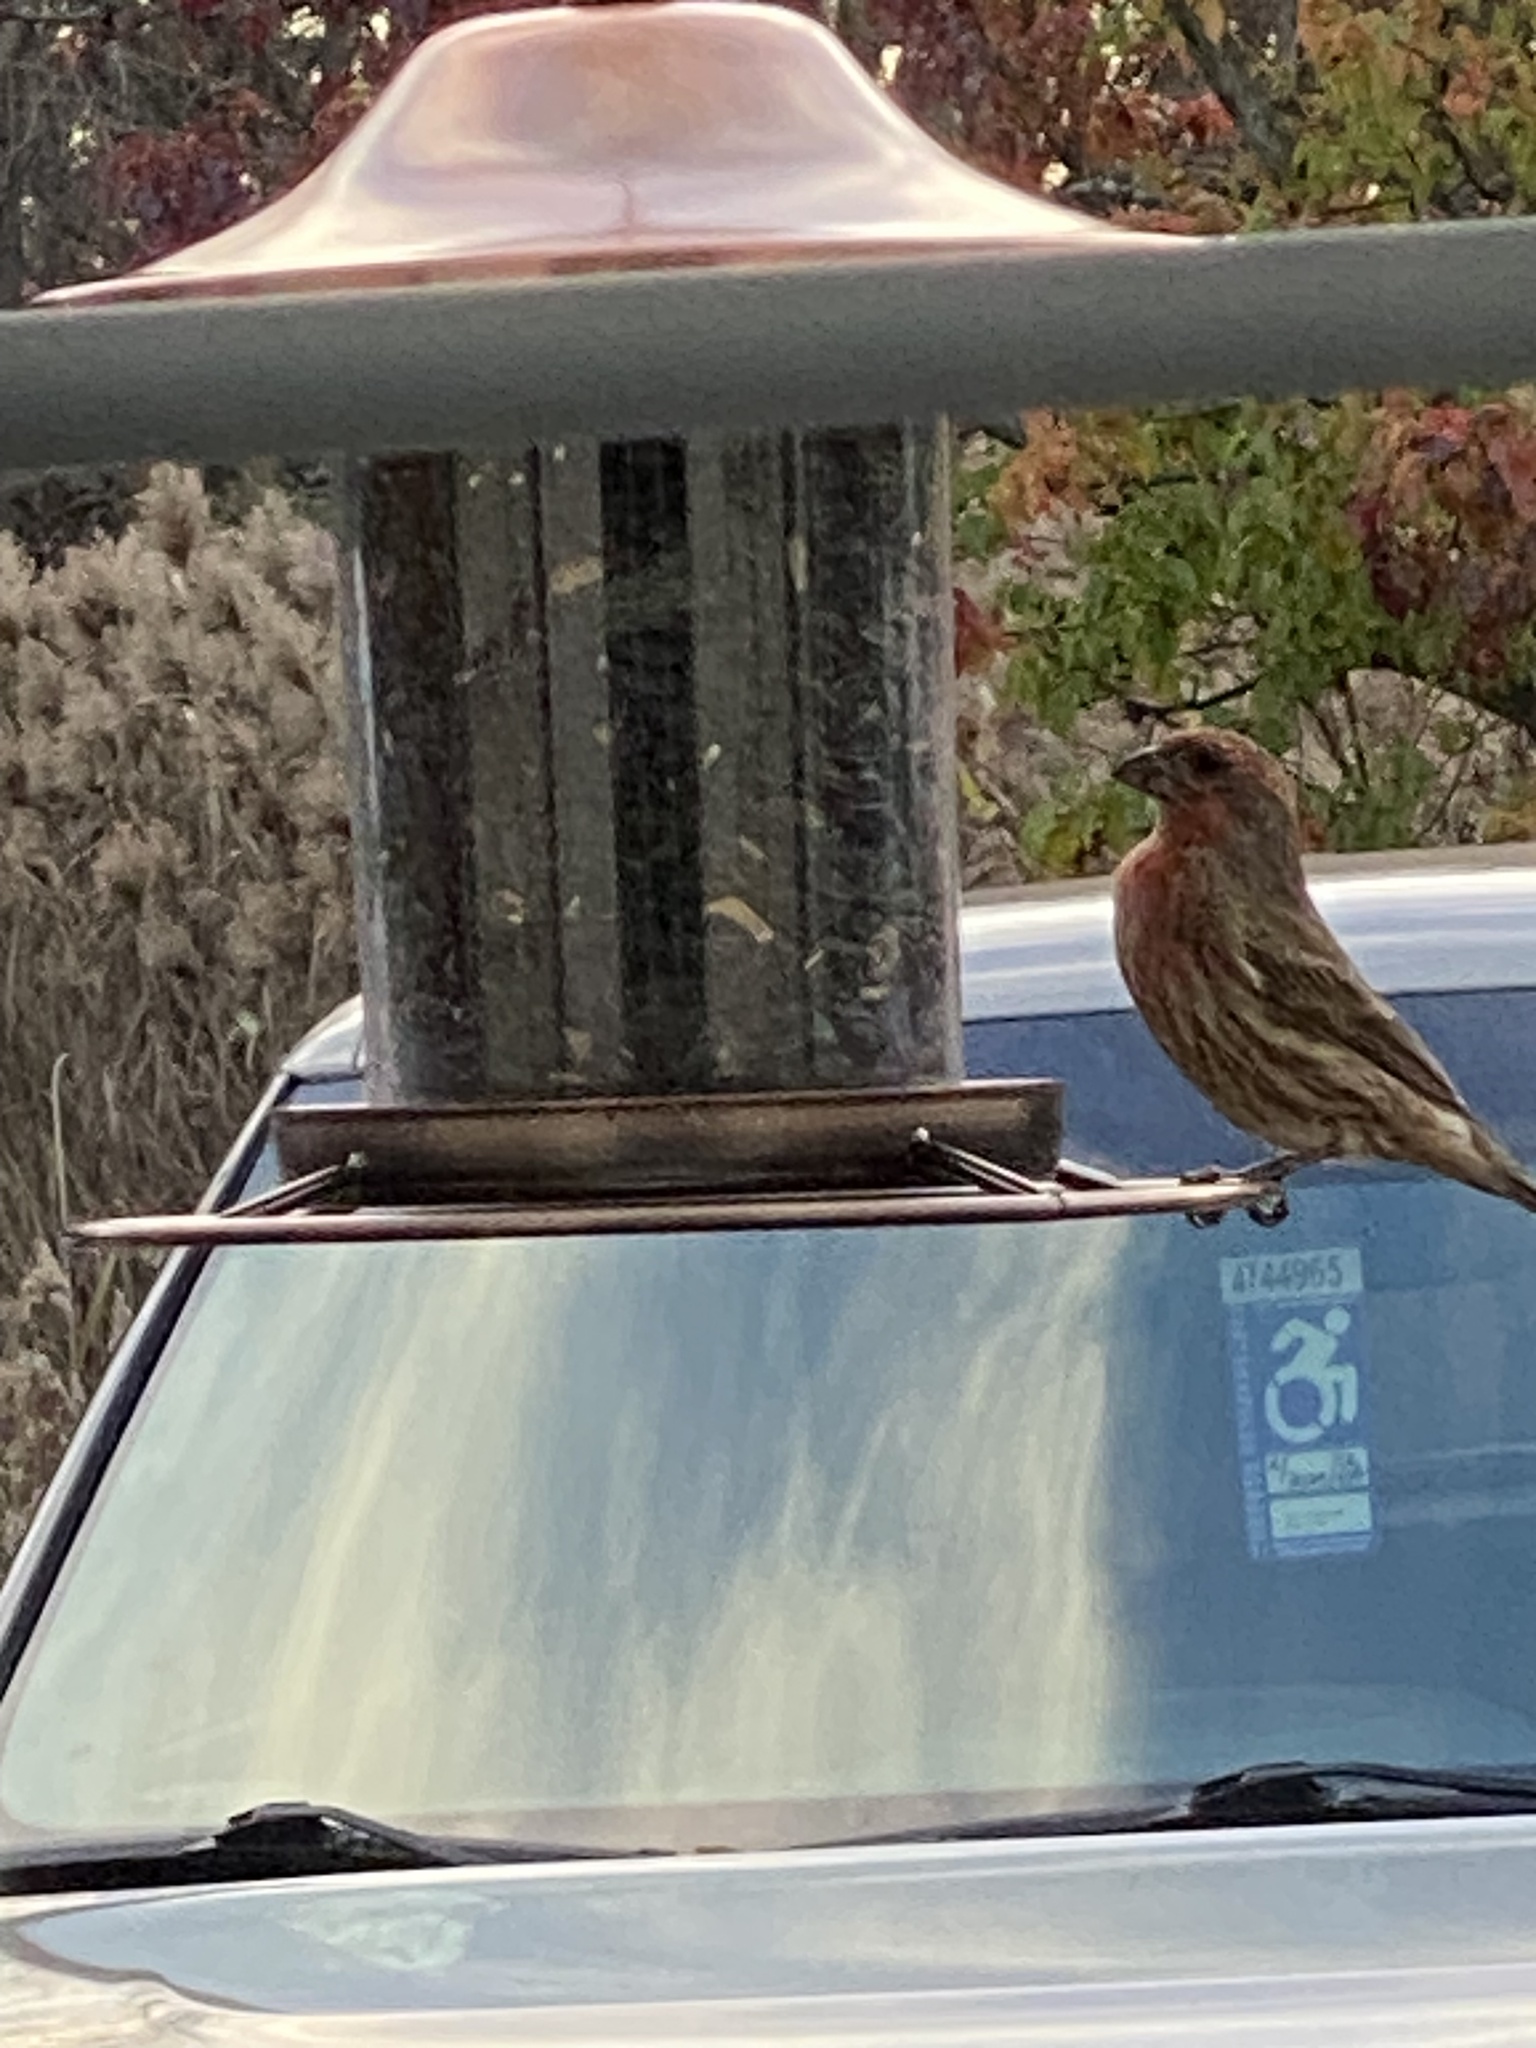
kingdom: Animalia
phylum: Chordata
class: Aves
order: Passeriformes
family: Fringillidae
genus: Haemorhous
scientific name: Haemorhous mexicanus
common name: House finch
